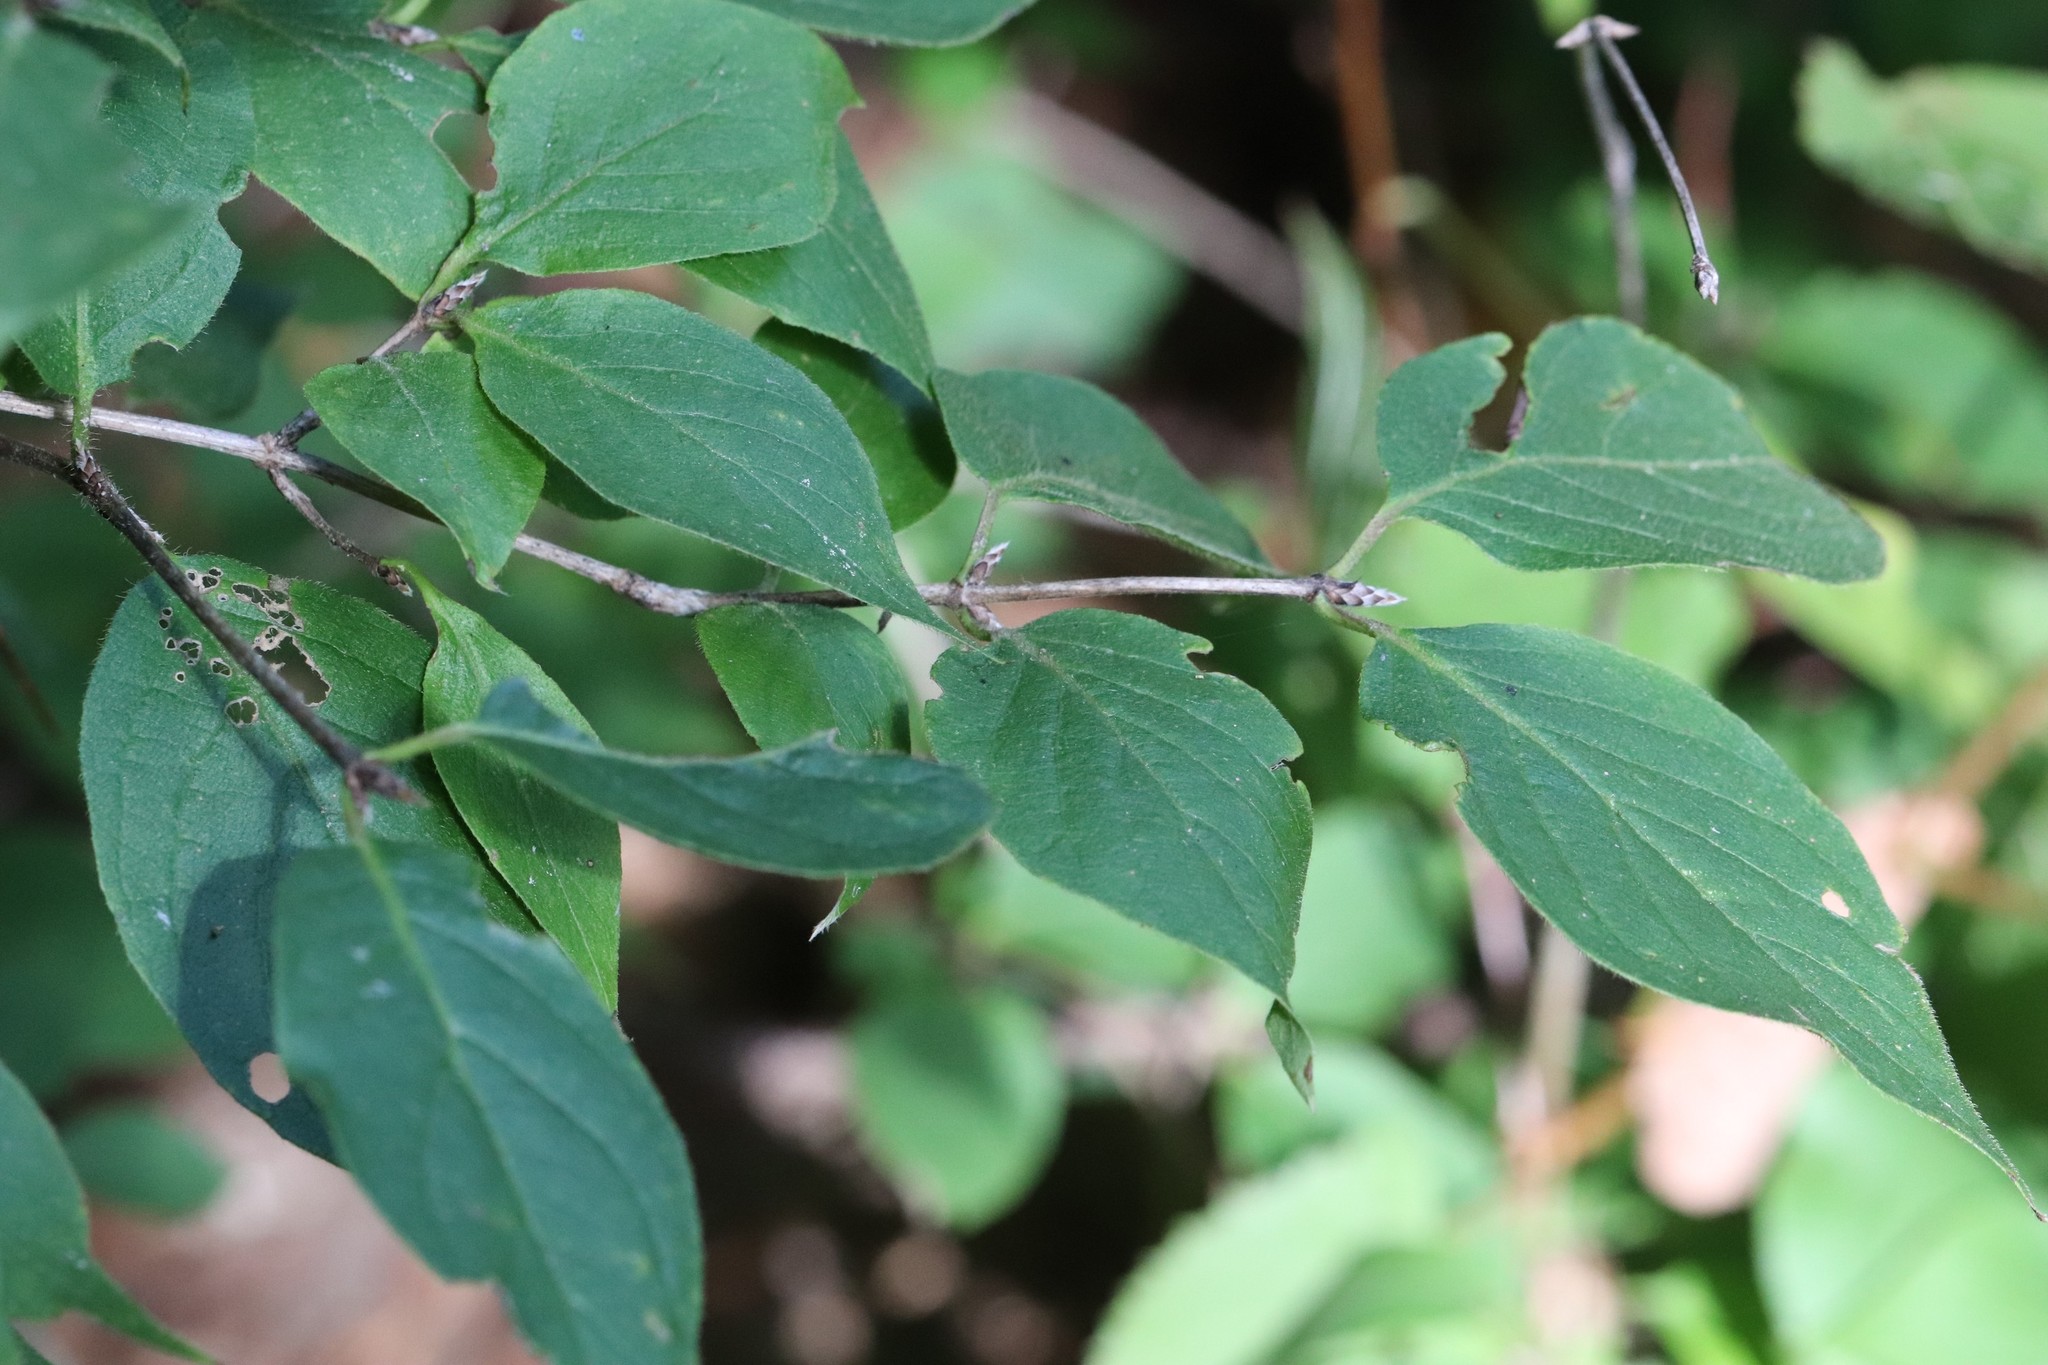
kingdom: Plantae
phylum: Tracheophyta
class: Magnoliopsida
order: Dipsacales
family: Caprifoliaceae
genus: Lonicera
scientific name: Lonicera chrysantha
